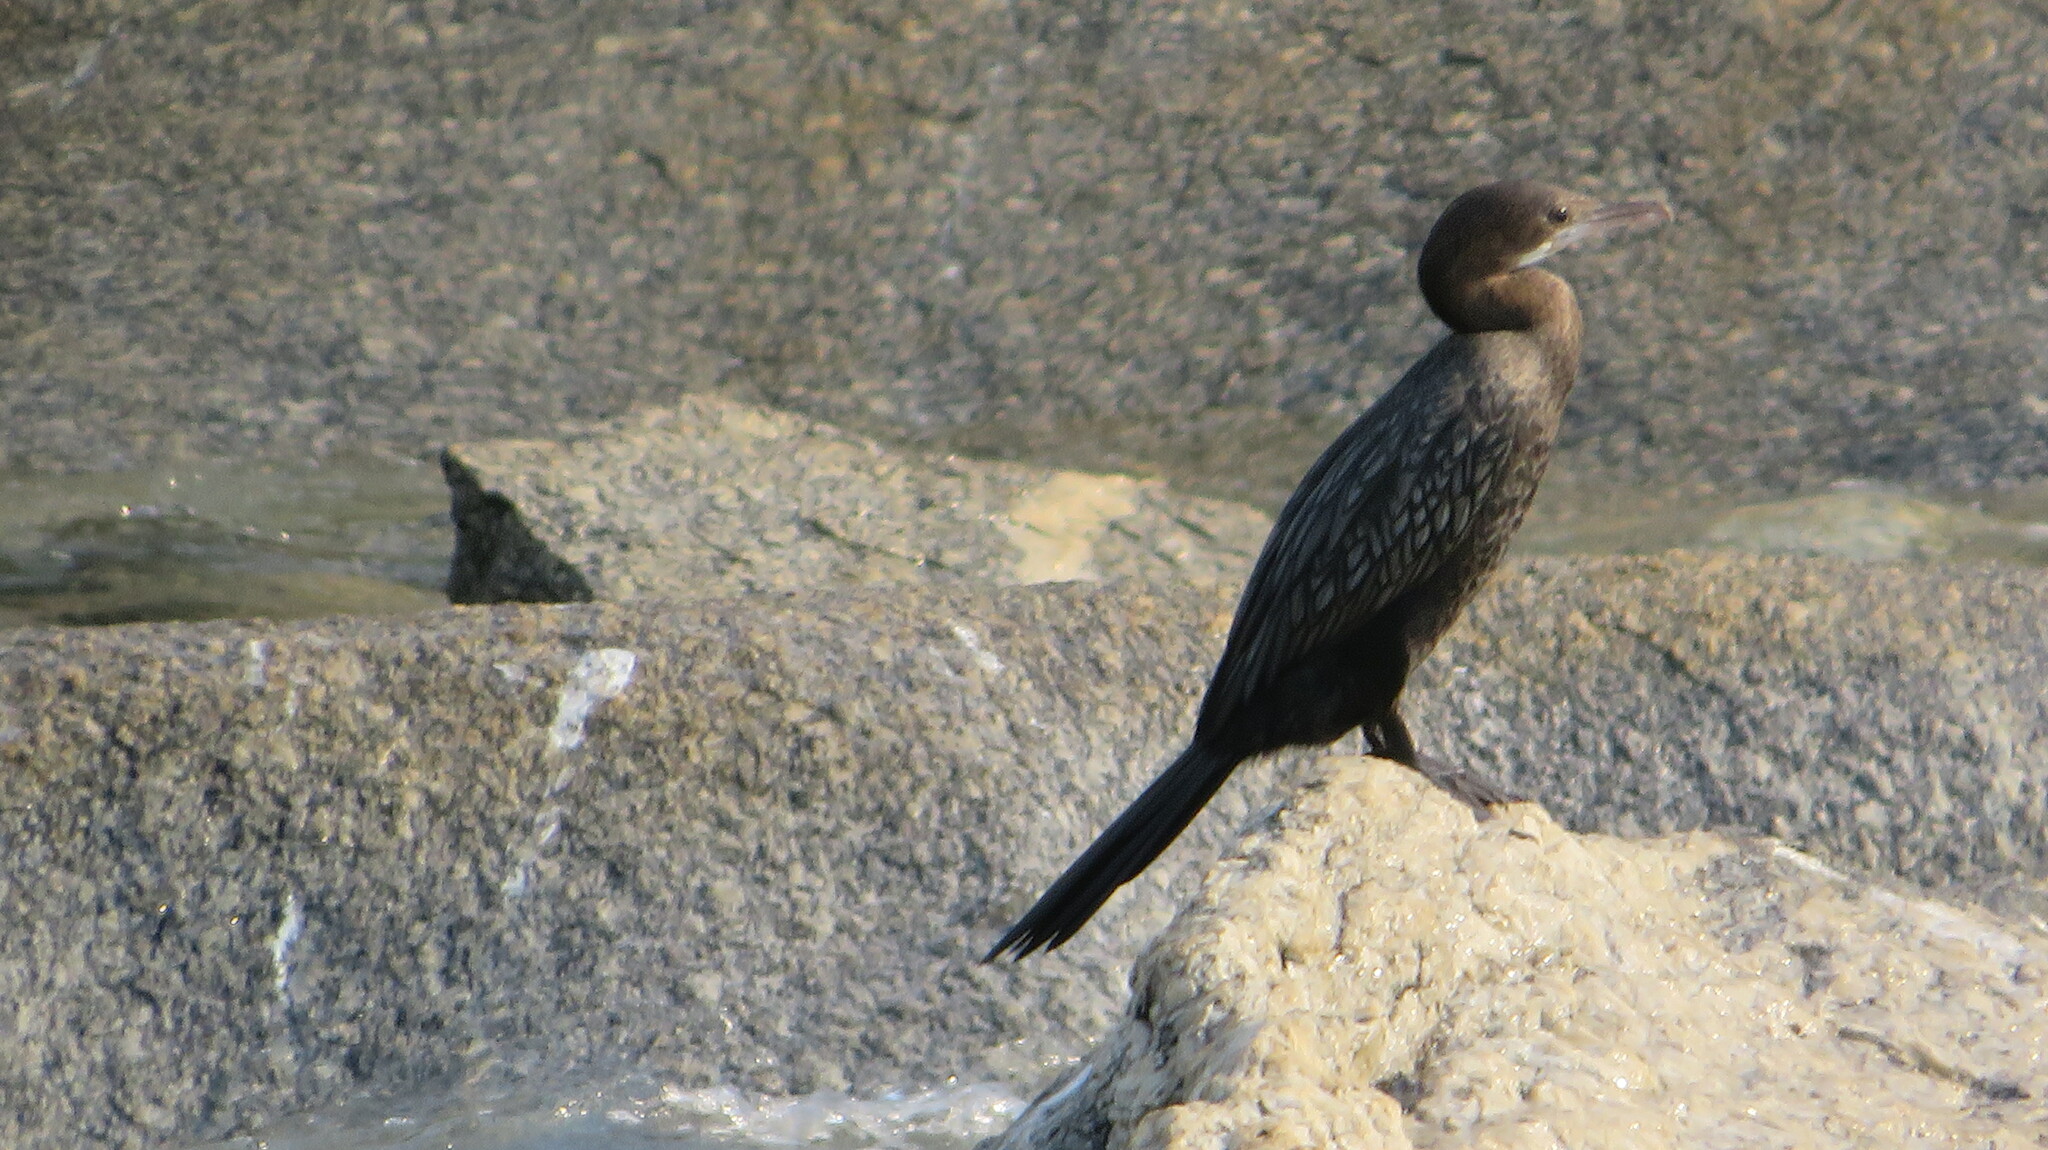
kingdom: Animalia
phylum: Chordata
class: Aves
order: Suliformes
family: Phalacrocoracidae
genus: Microcarbo
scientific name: Microcarbo niger
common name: Little cormorant
